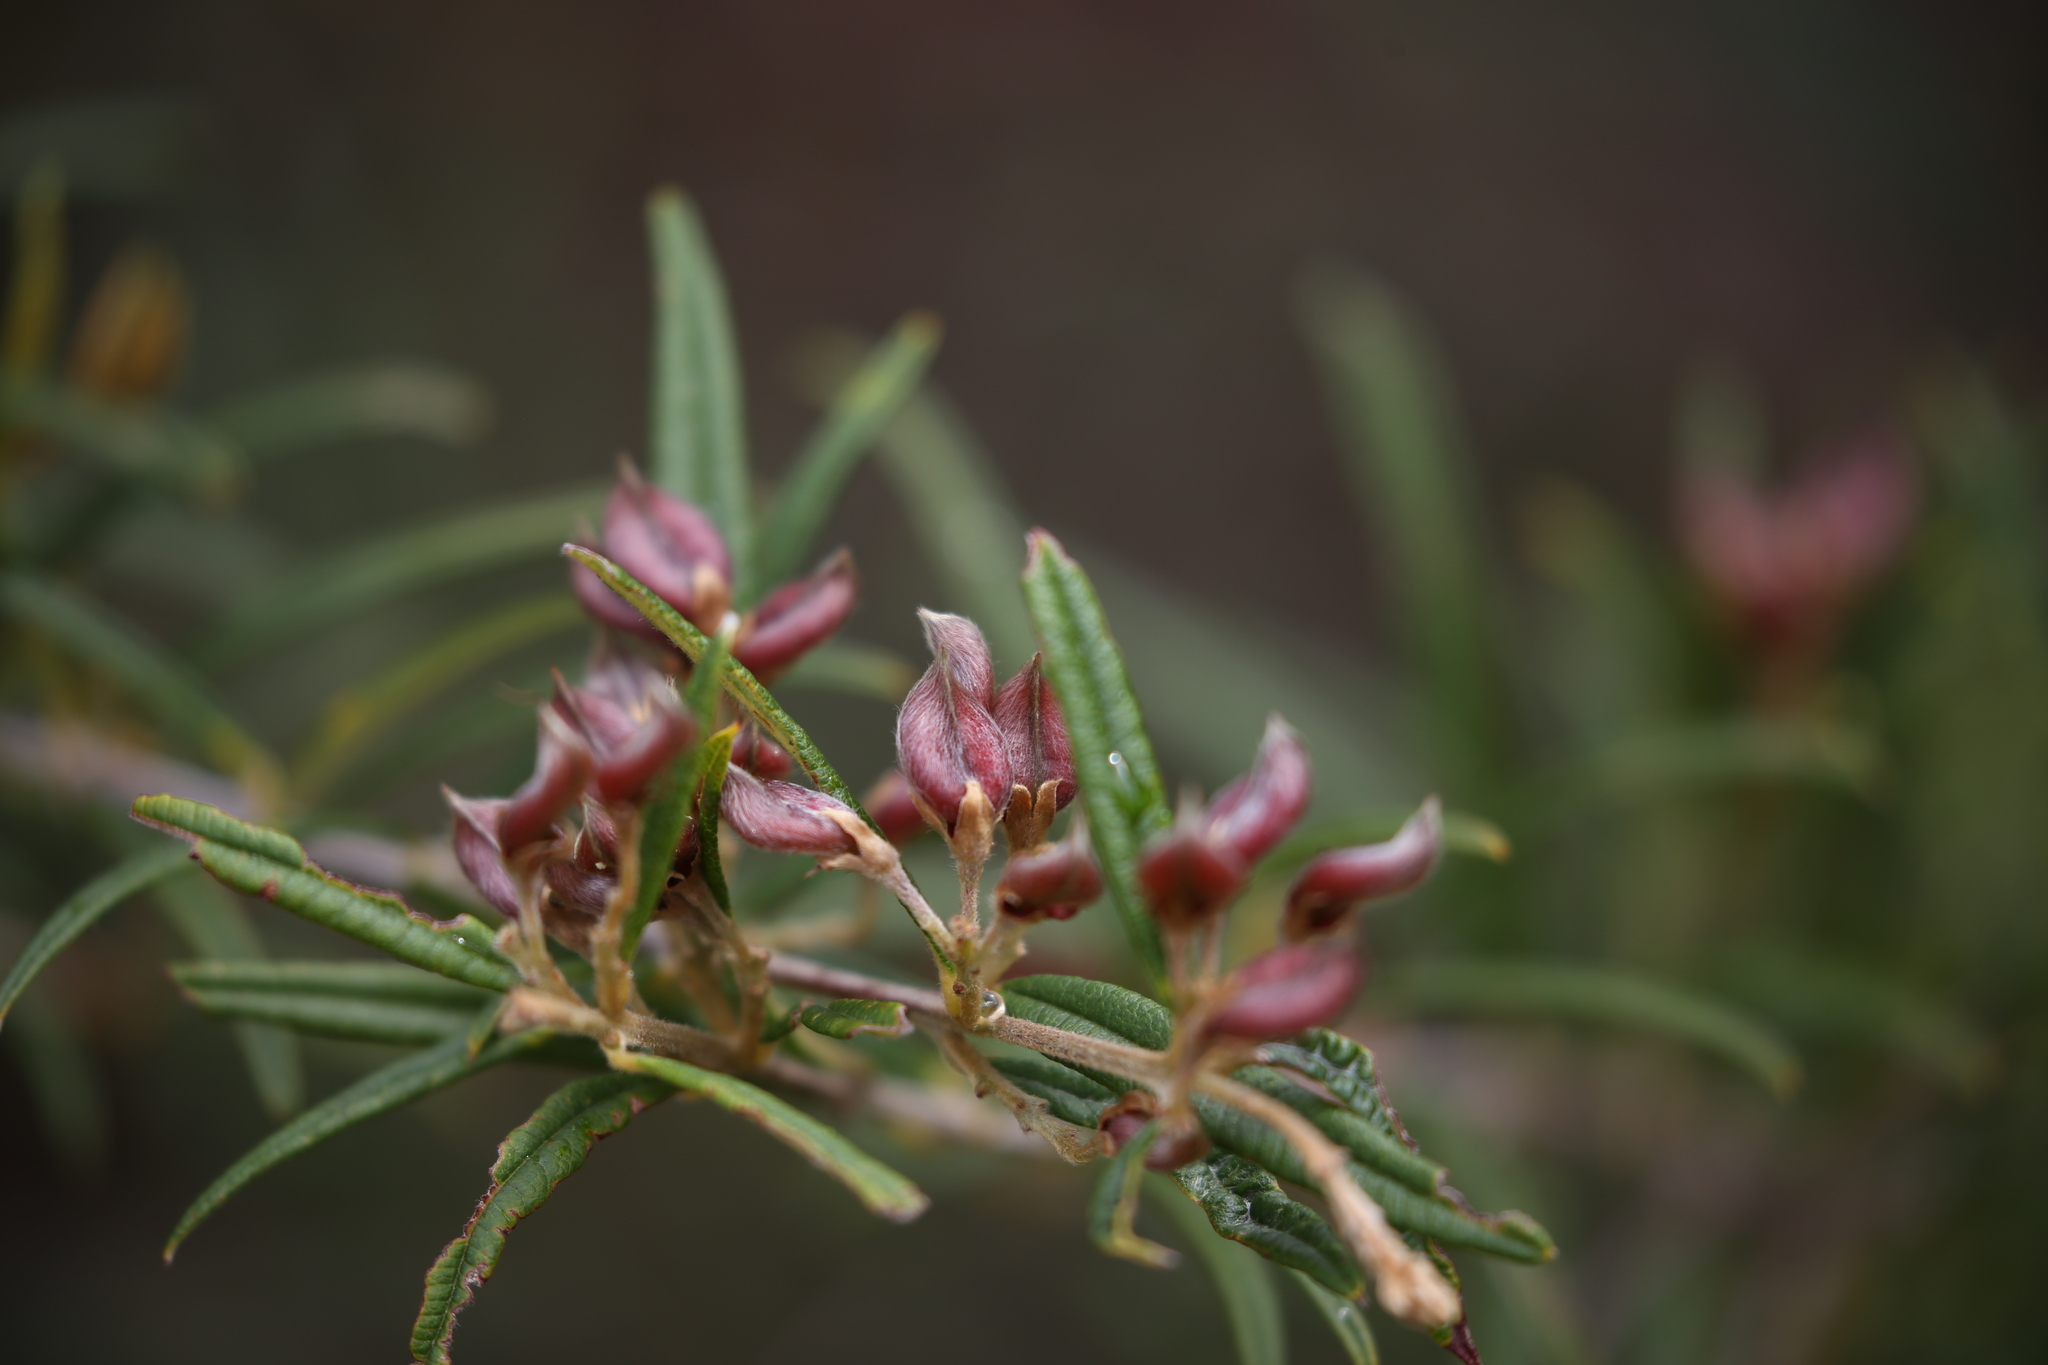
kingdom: Plantae
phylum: Tracheophyta
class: Magnoliopsida
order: Fabales
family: Fabaceae
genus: Oxylobium
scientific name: Oxylobium robustum
